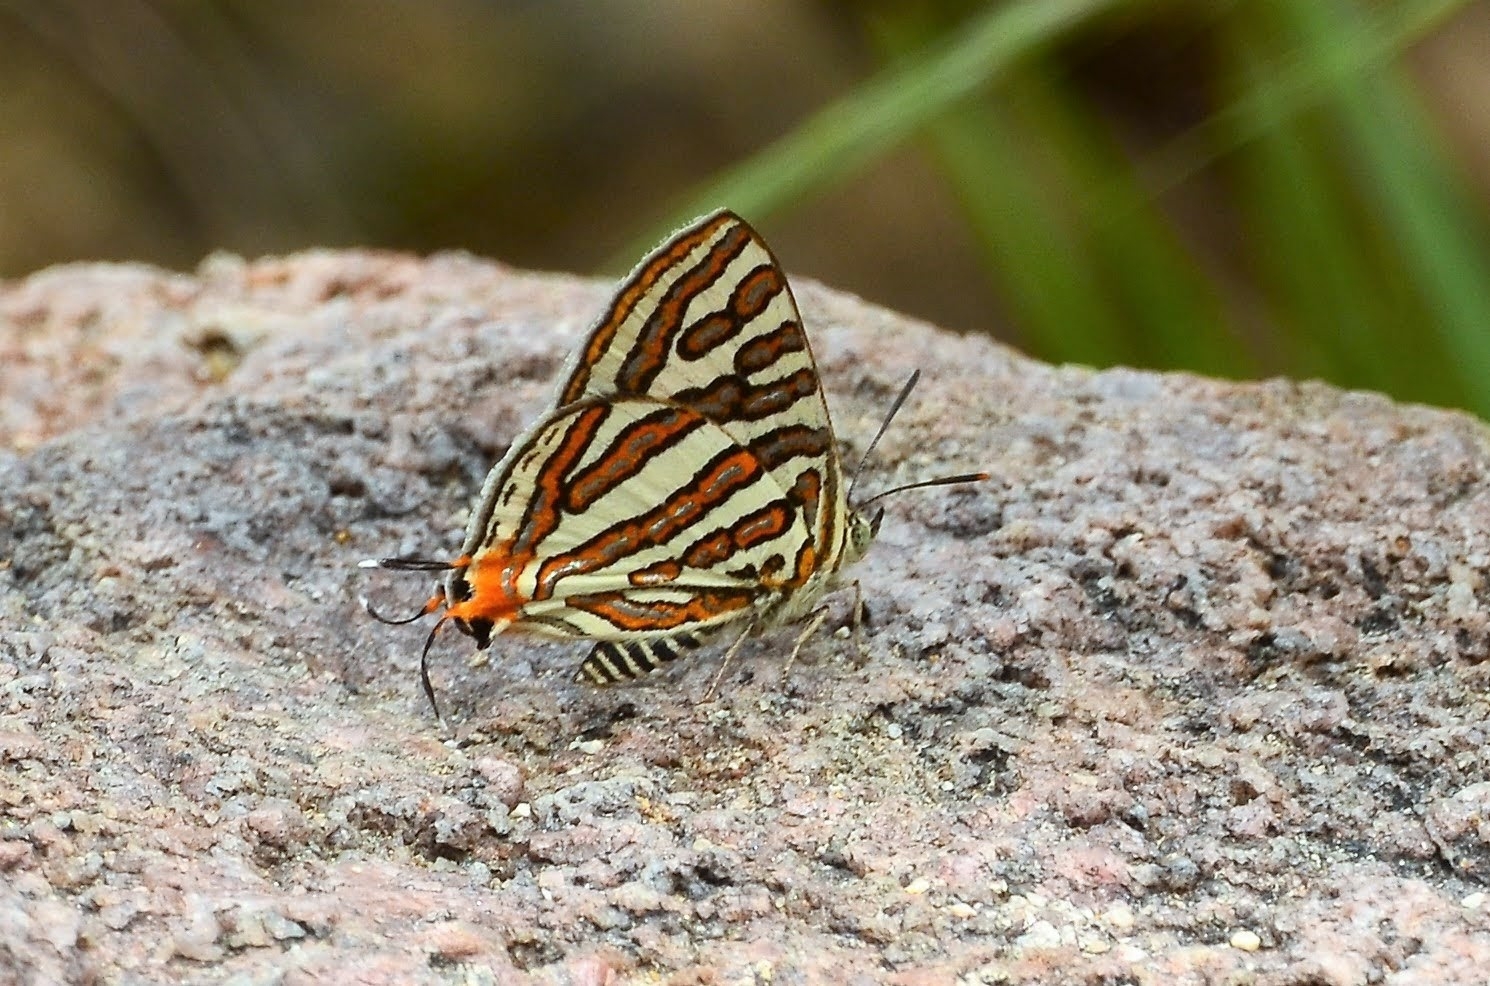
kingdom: Animalia
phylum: Arthropoda
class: Insecta
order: Lepidoptera
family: Lycaenidae
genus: Cigaritis
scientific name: Cigaritis vulcanus
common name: Common silverline
